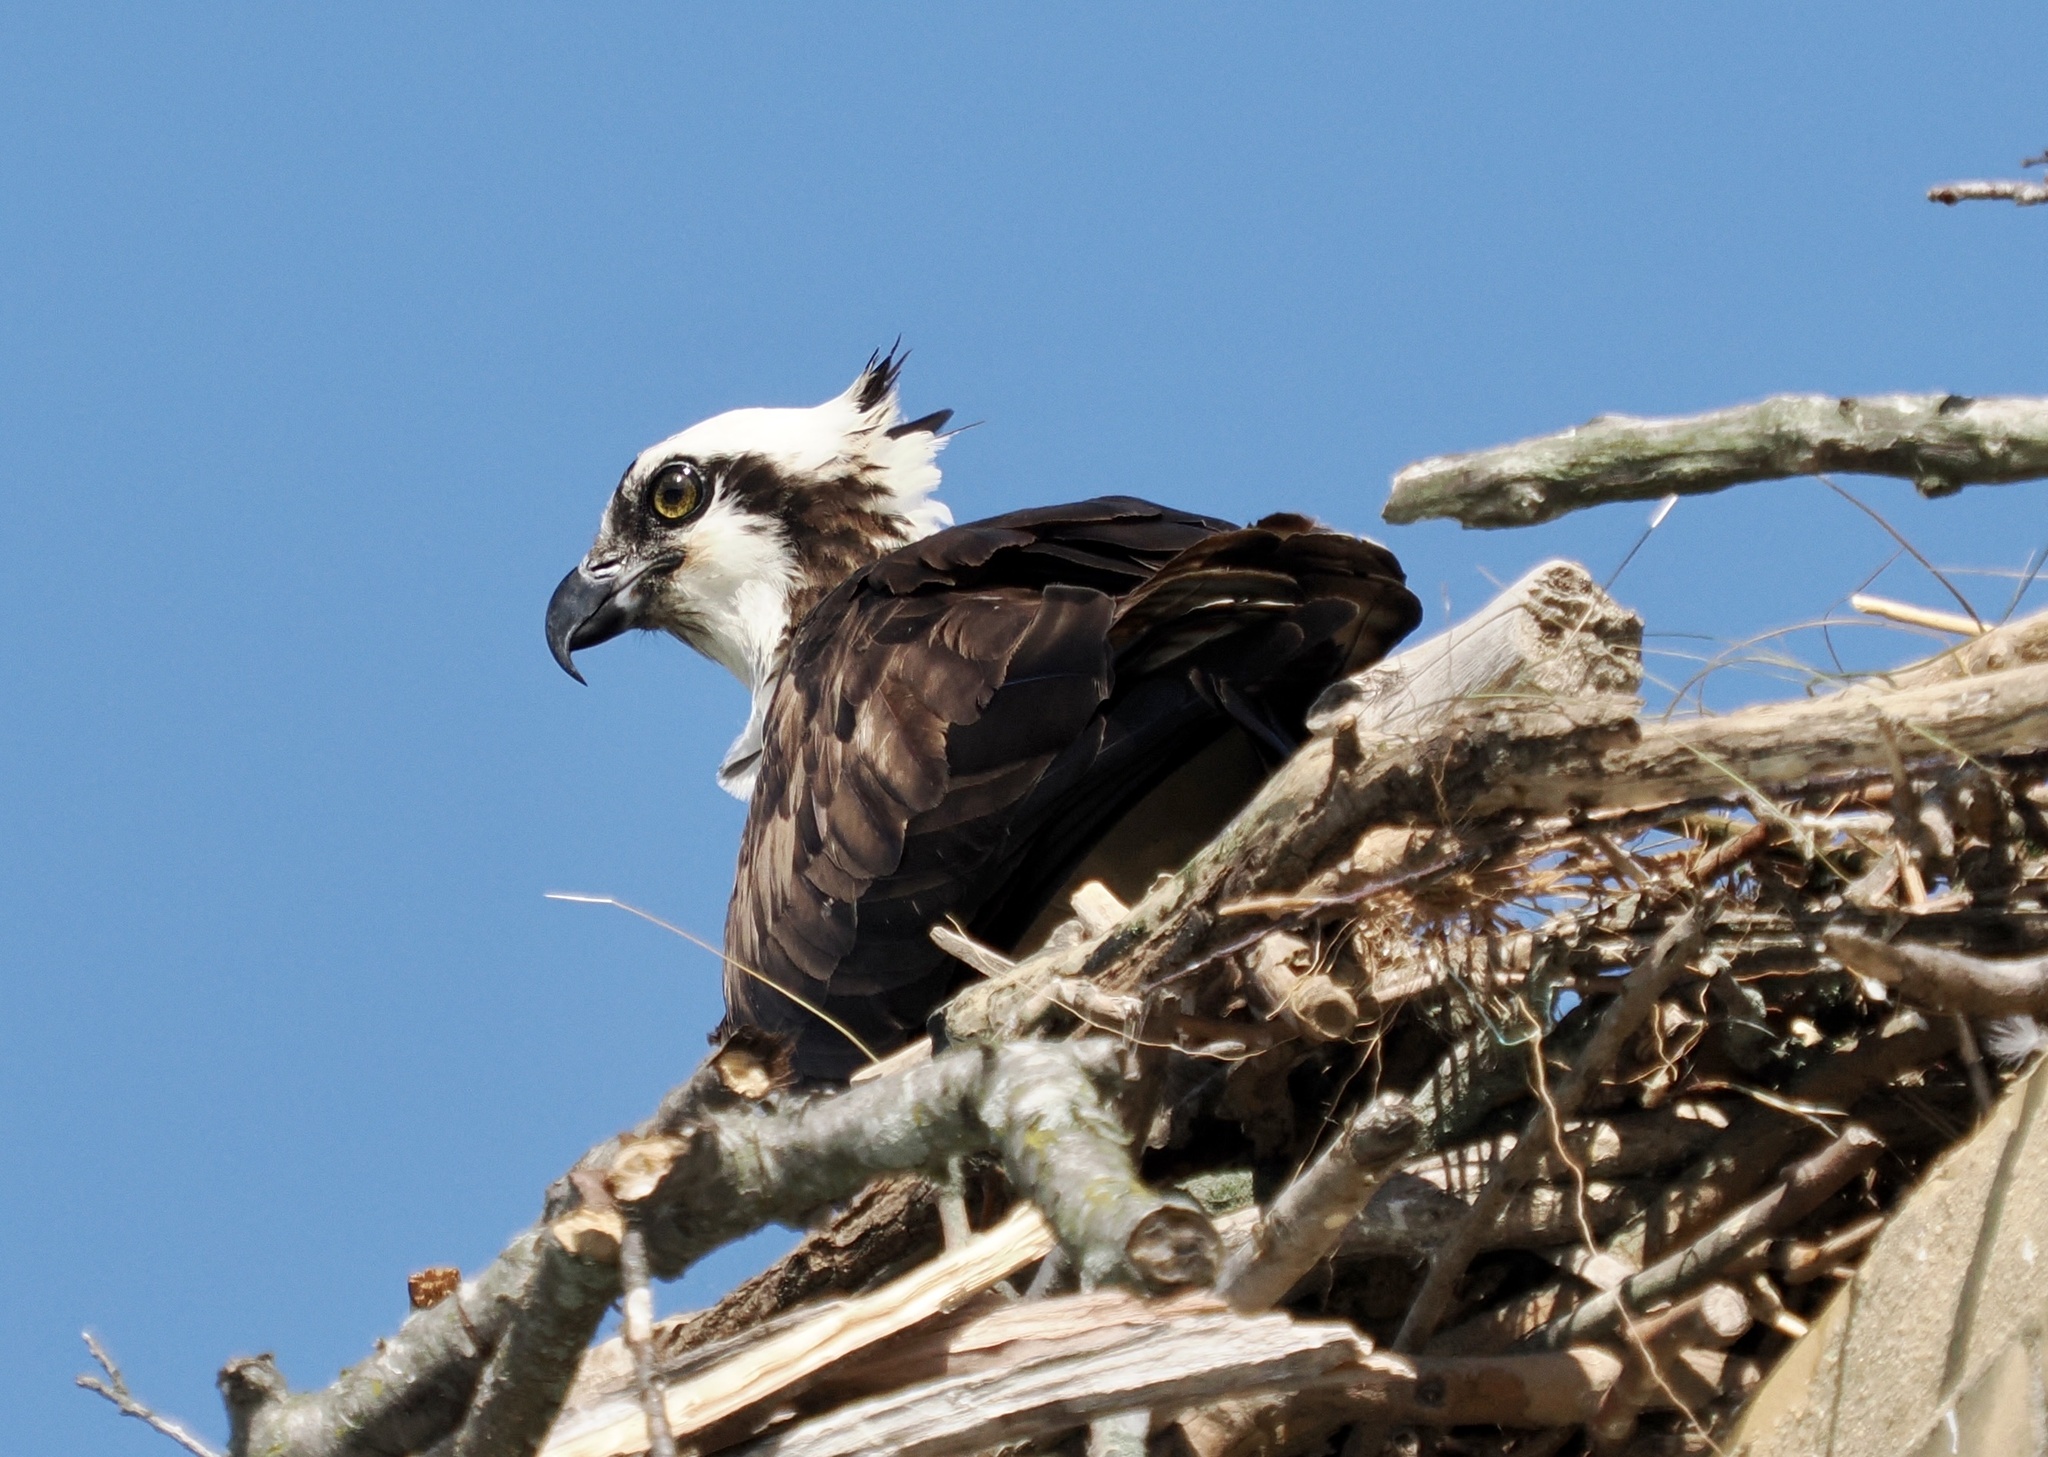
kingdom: Animalia
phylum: Chordata
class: Aves
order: Accipitriformes
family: Pandionidae
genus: Pandion
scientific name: Pandion haliaetus
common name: Osprey
